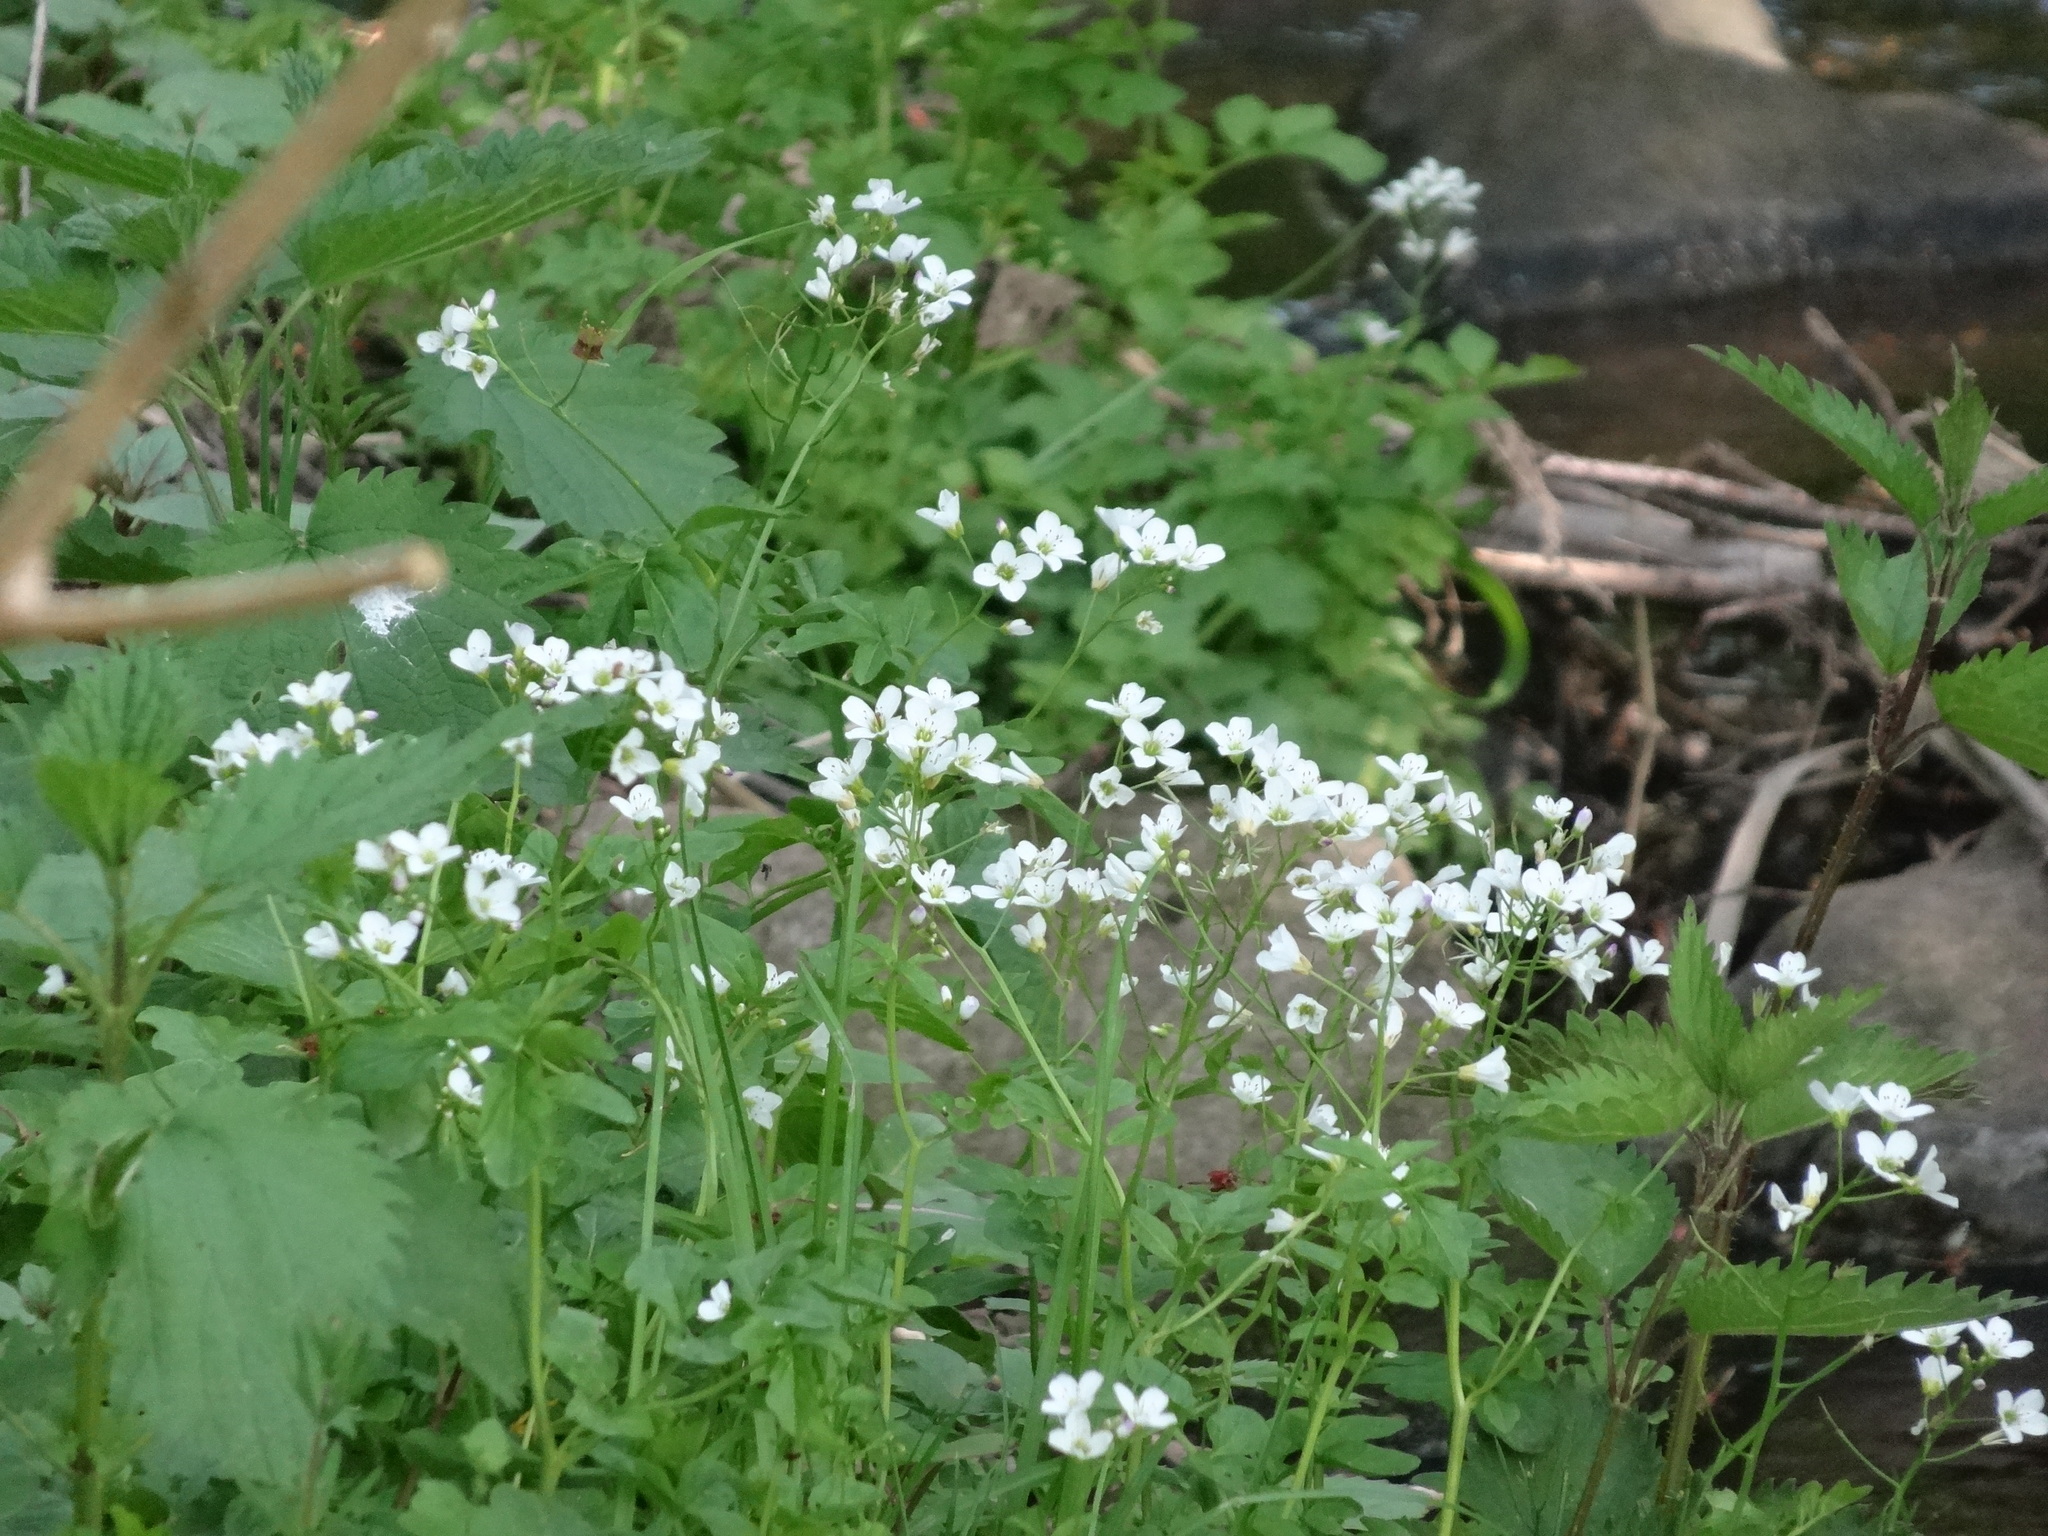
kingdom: Plantae
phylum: Tracheophyta
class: Magnoliopsida
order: Brassicales
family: Brassicaceae
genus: Cardamine
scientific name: Cardamine amara
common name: Large bitter-cress
